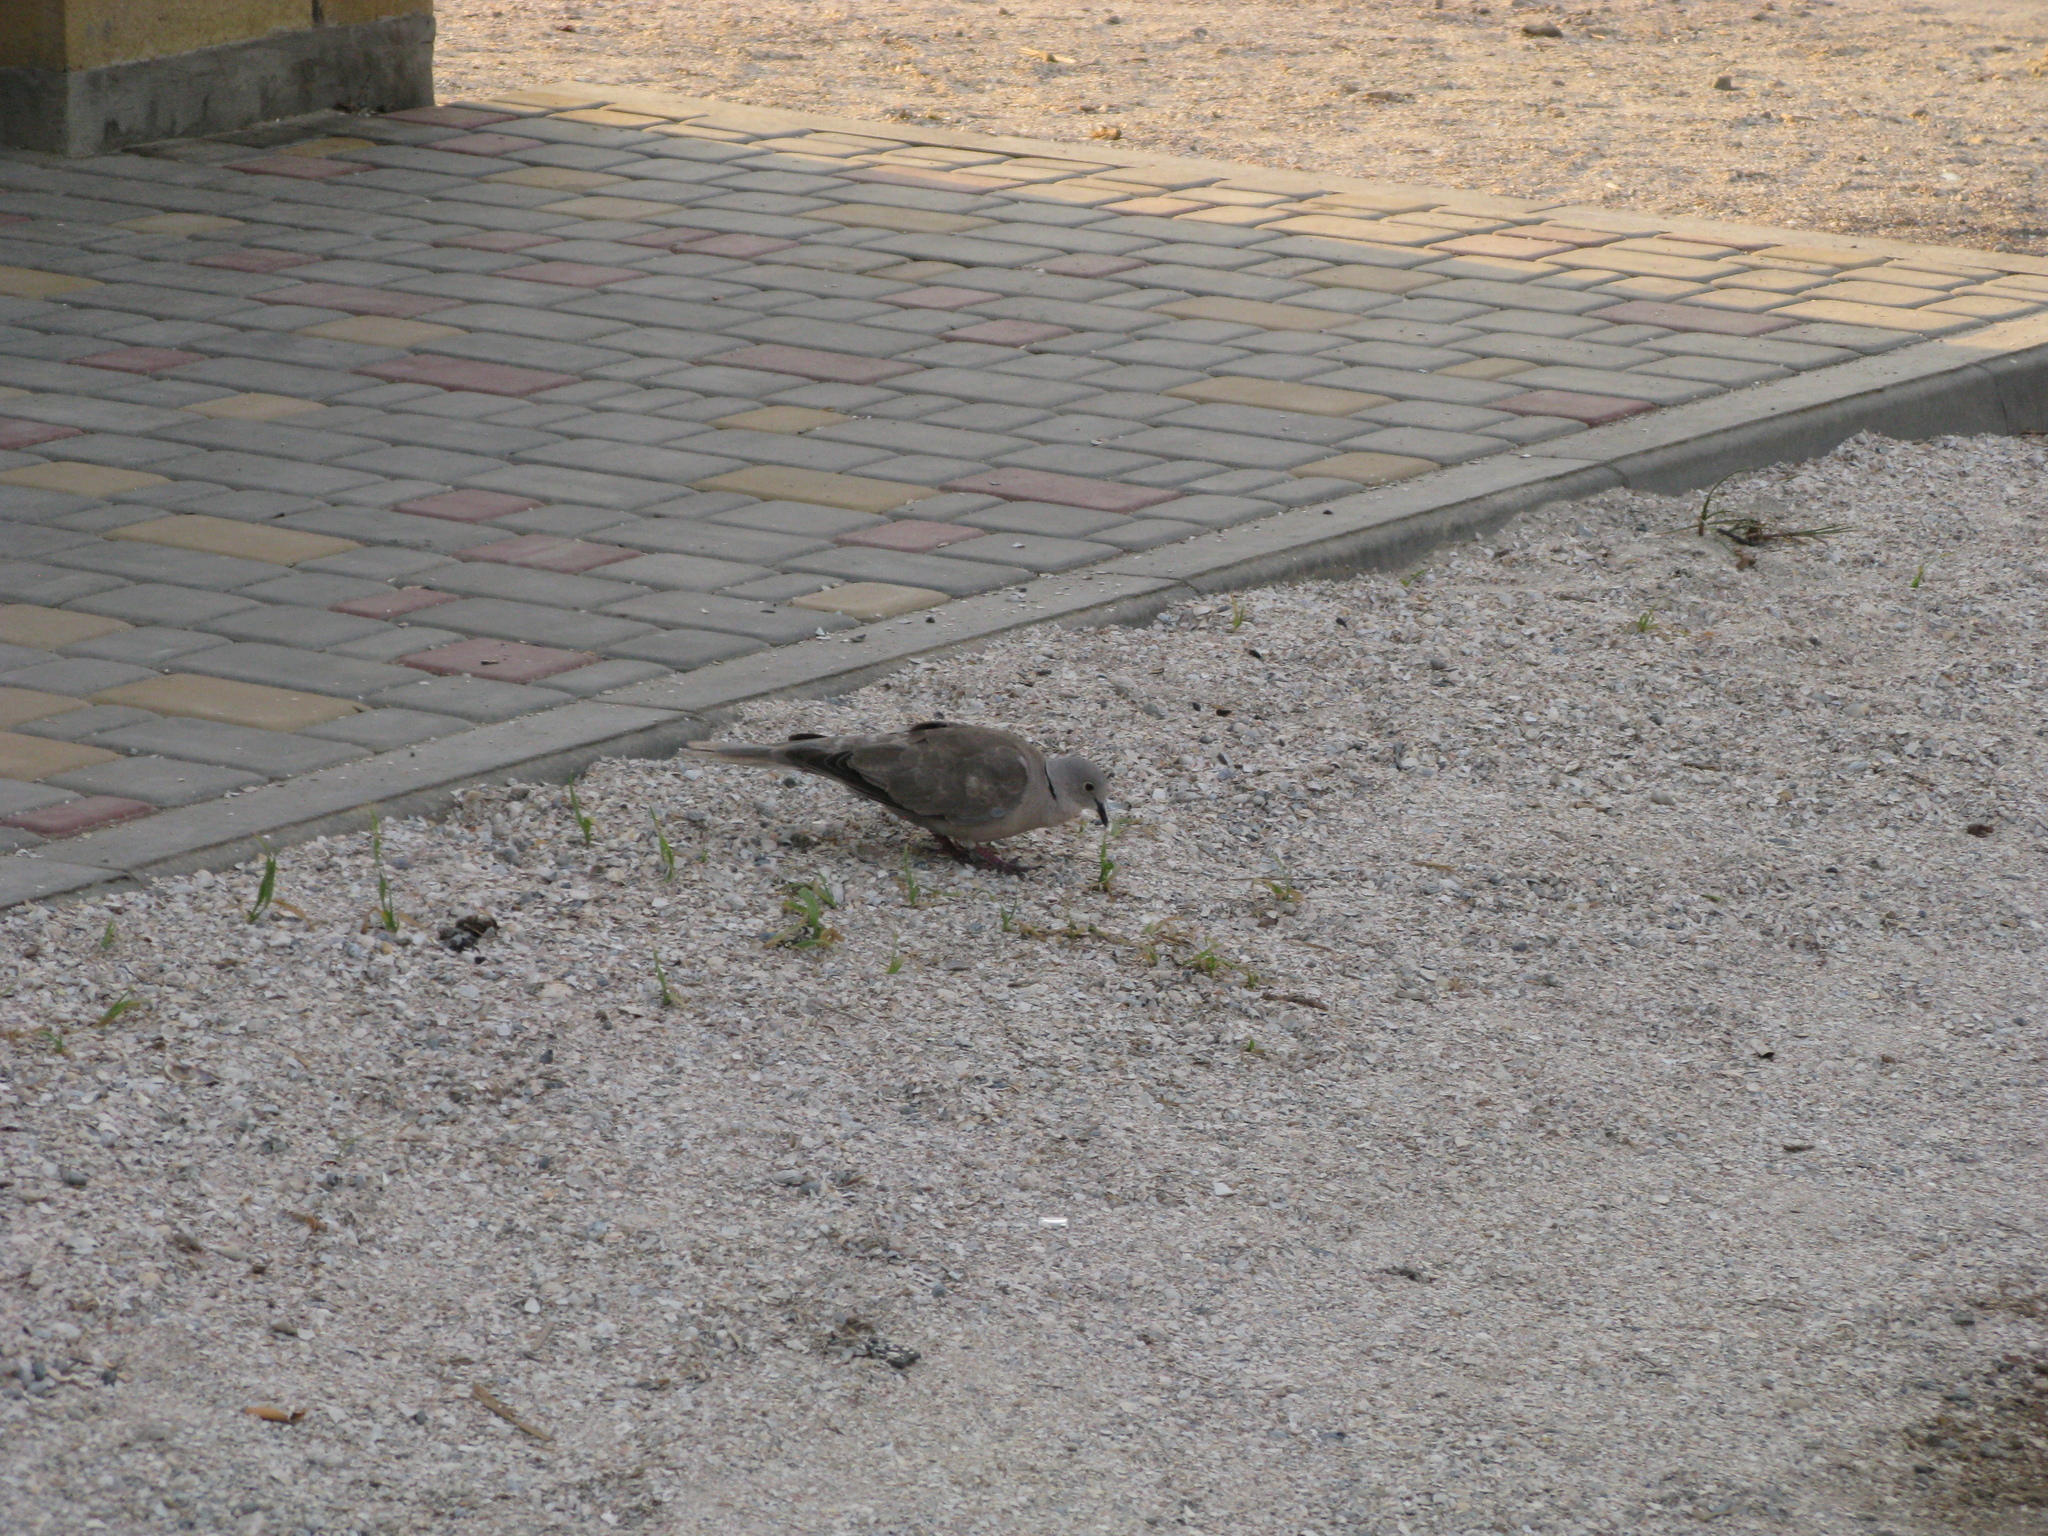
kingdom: Animalia
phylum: Chordata
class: Aves
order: Columbiformes
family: Columbidae
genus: Streptopelia
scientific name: Streptopelia decaocto
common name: Eurasian collared dove
